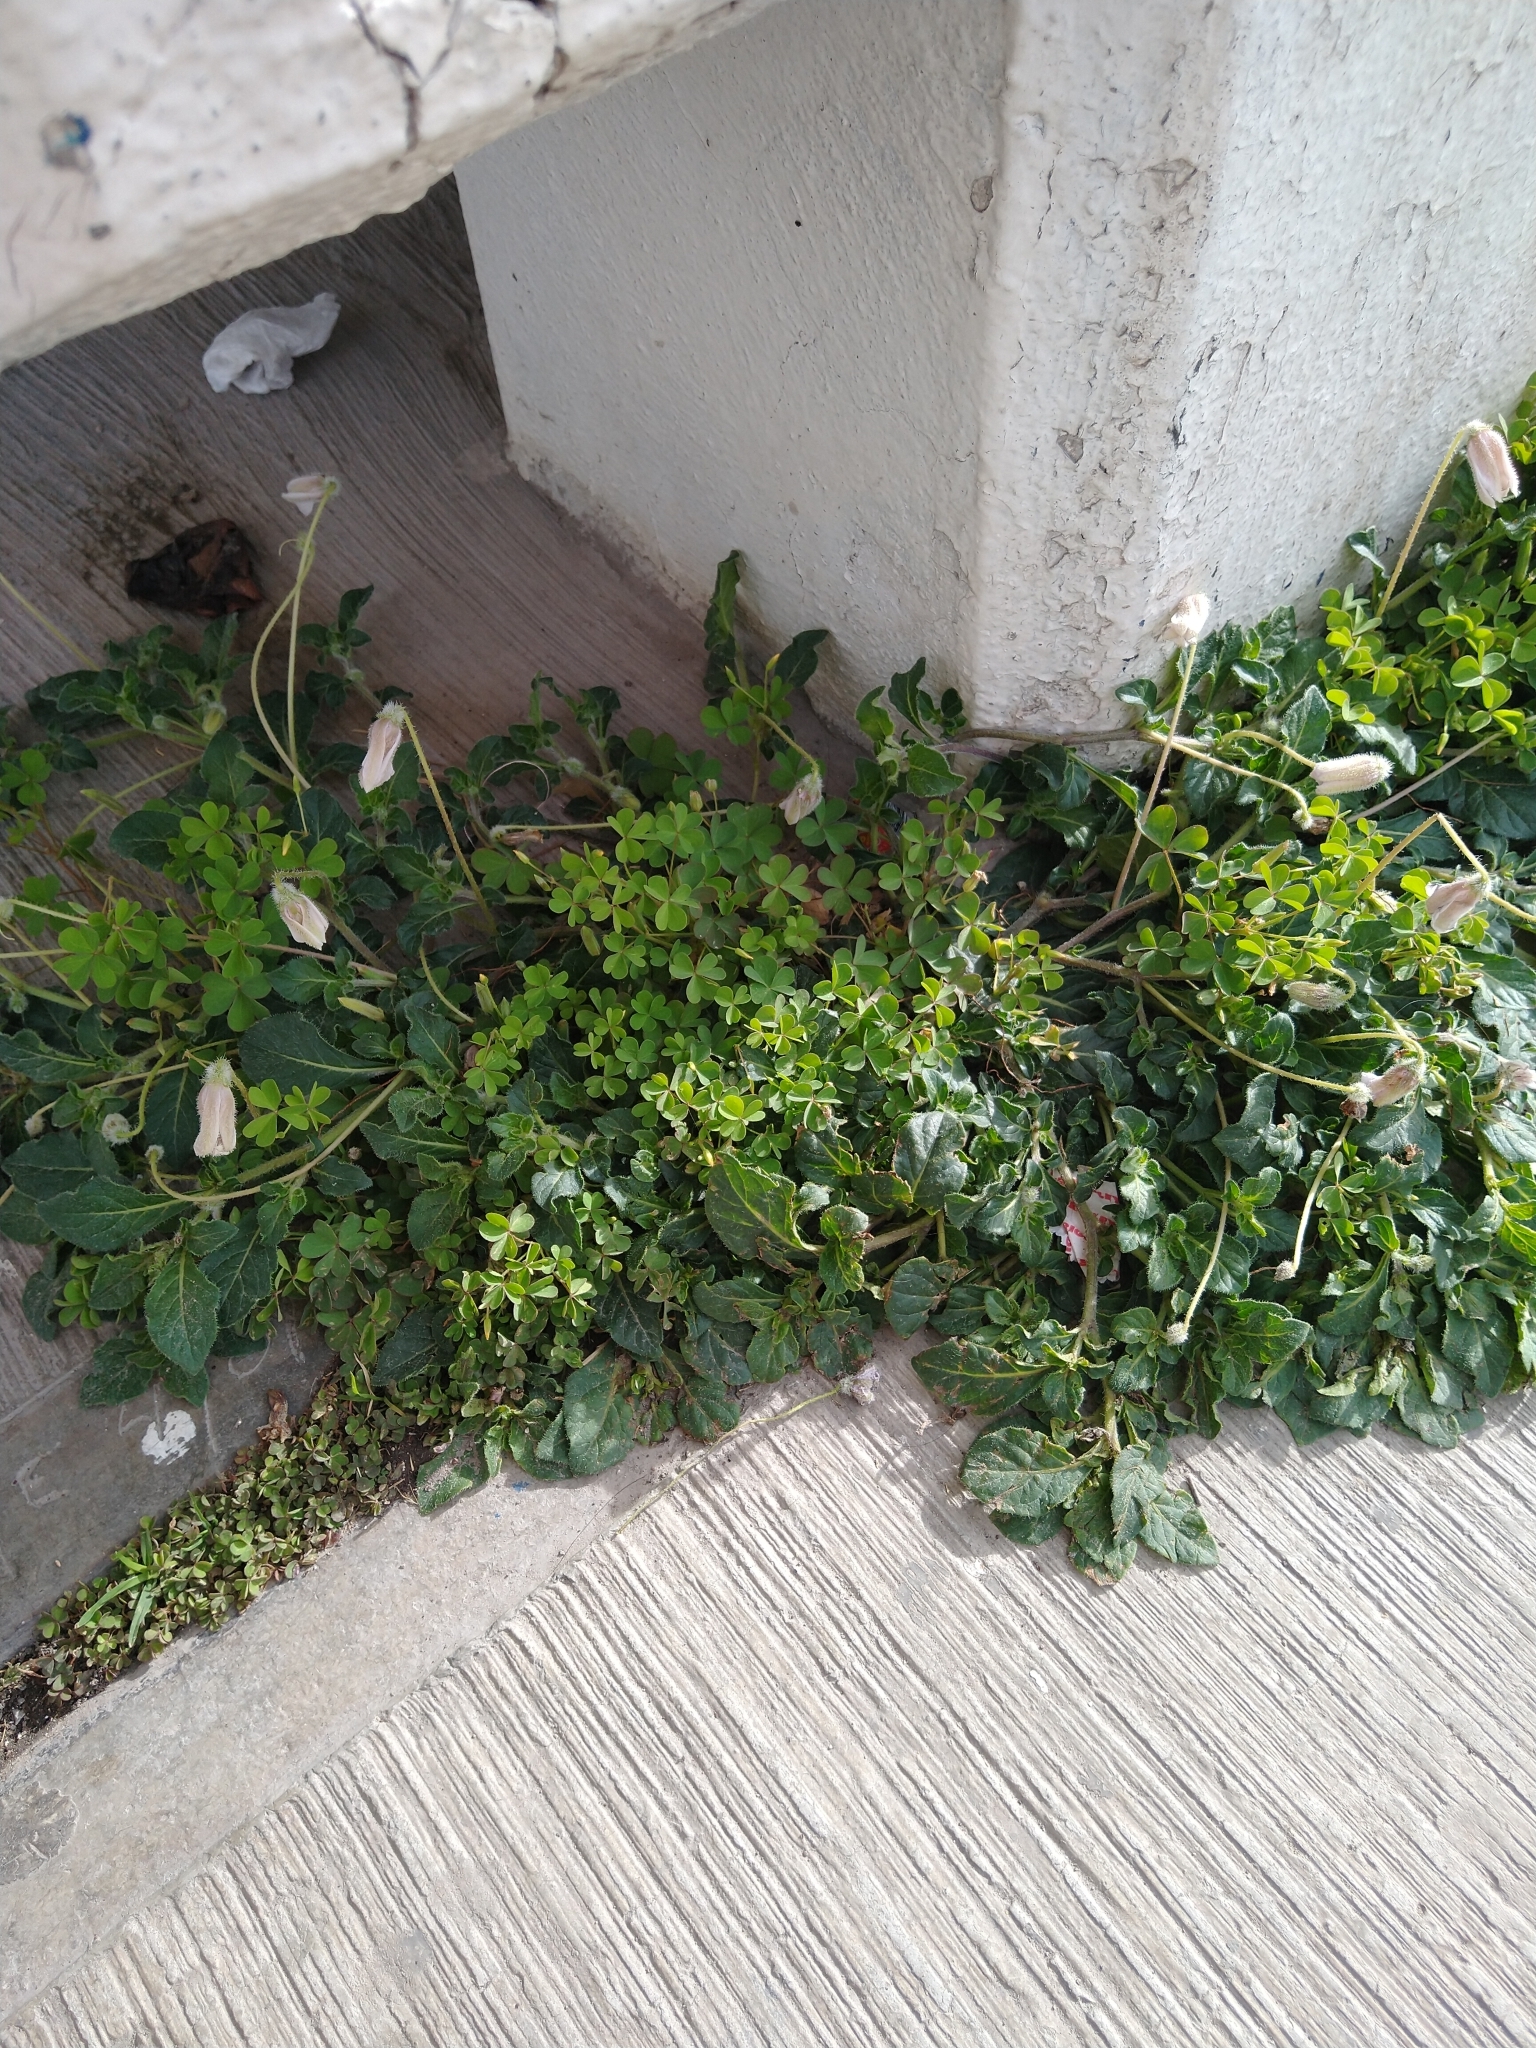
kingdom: Plantae
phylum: Tracheophyta
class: Magnoliopsida
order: Solanales
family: Solanaceae
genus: Lycianthes
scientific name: Lycianthes peduncularis
